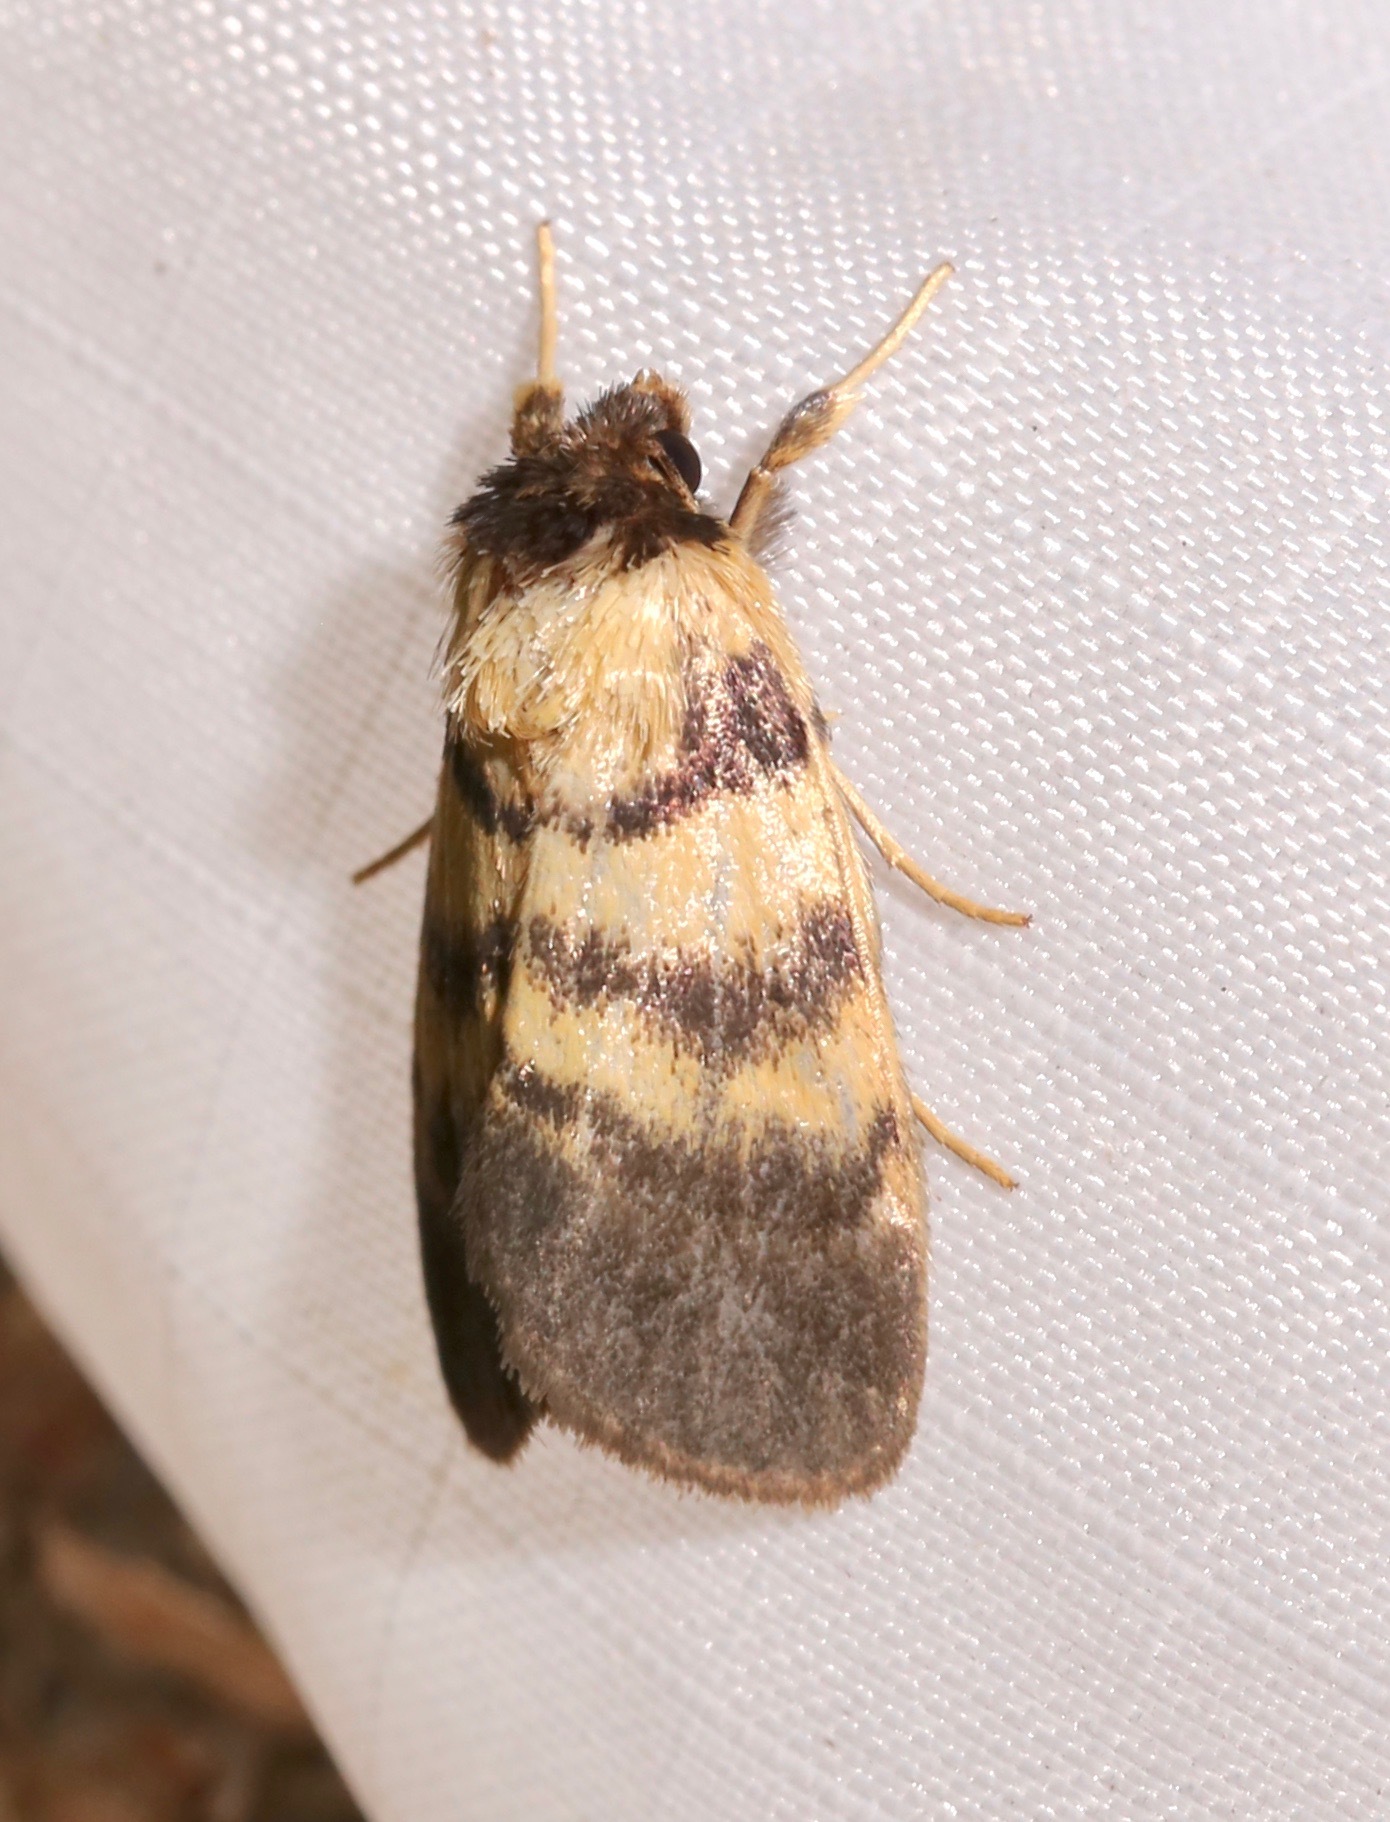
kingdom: Animalia
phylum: Arthropoda
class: Insecta
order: Lepidoptera
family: Noctuidae
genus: Exyra
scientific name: Exyra ridingsii
